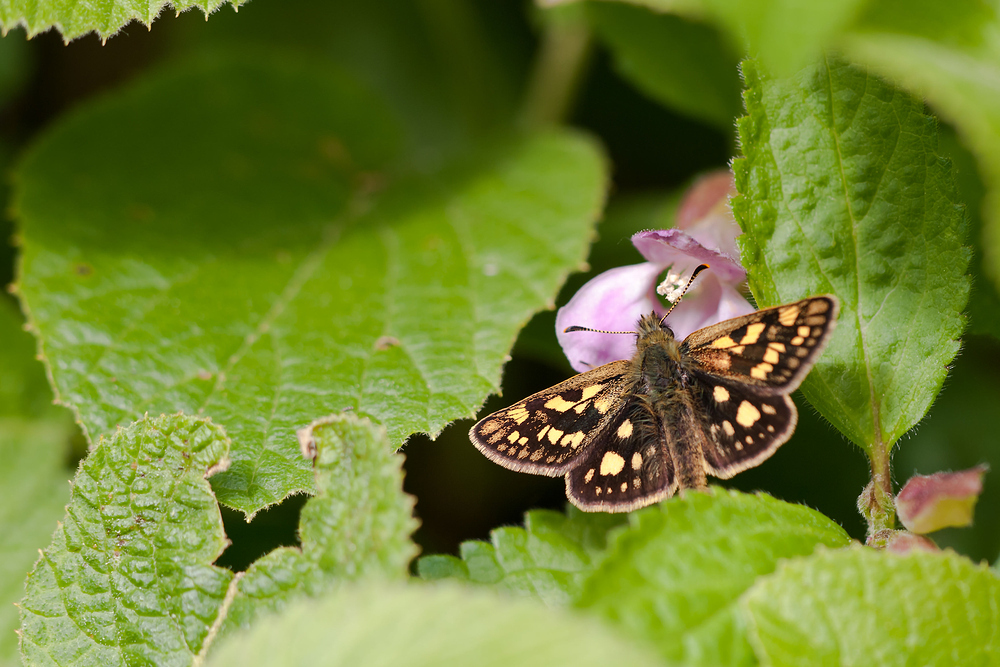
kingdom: Animalia
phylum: Arthropoda
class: Insecta
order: Lepidoptera
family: Hesperiidae
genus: Carterocephalus
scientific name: Carterocephalus palaemon
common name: Chequered skipper
